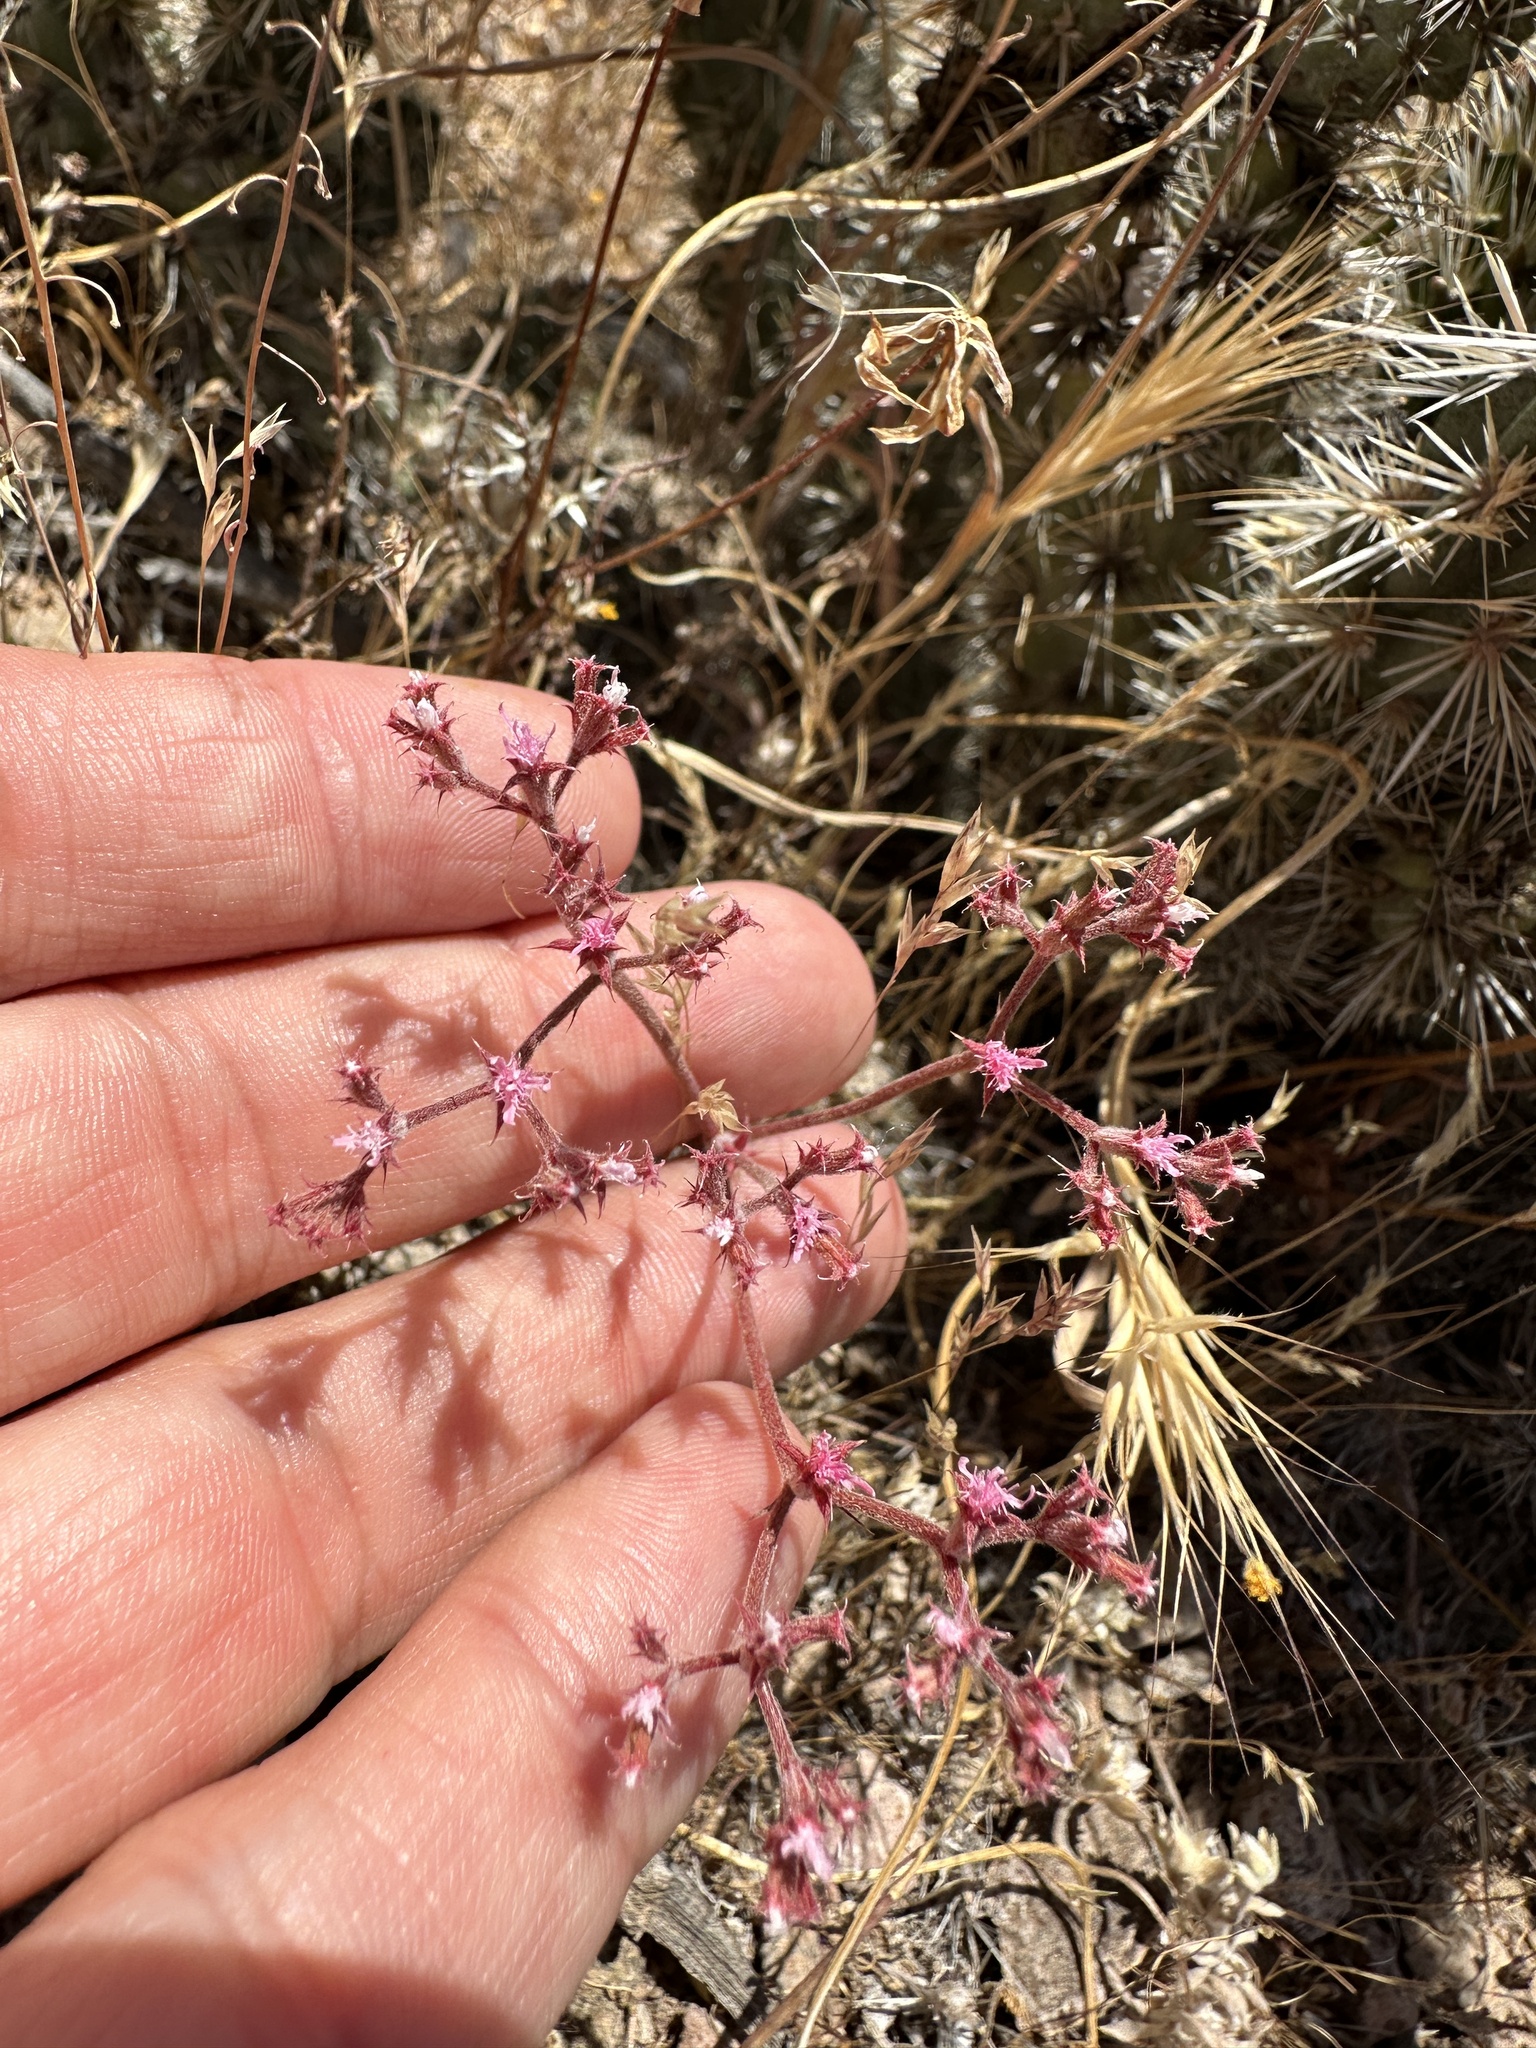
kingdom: Plantae
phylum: Tracheophyta
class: Magnoliopsida
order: Caryophyllales
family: Polygonaceae
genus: Chorizanthe
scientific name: Chorizanthe fimbriata
